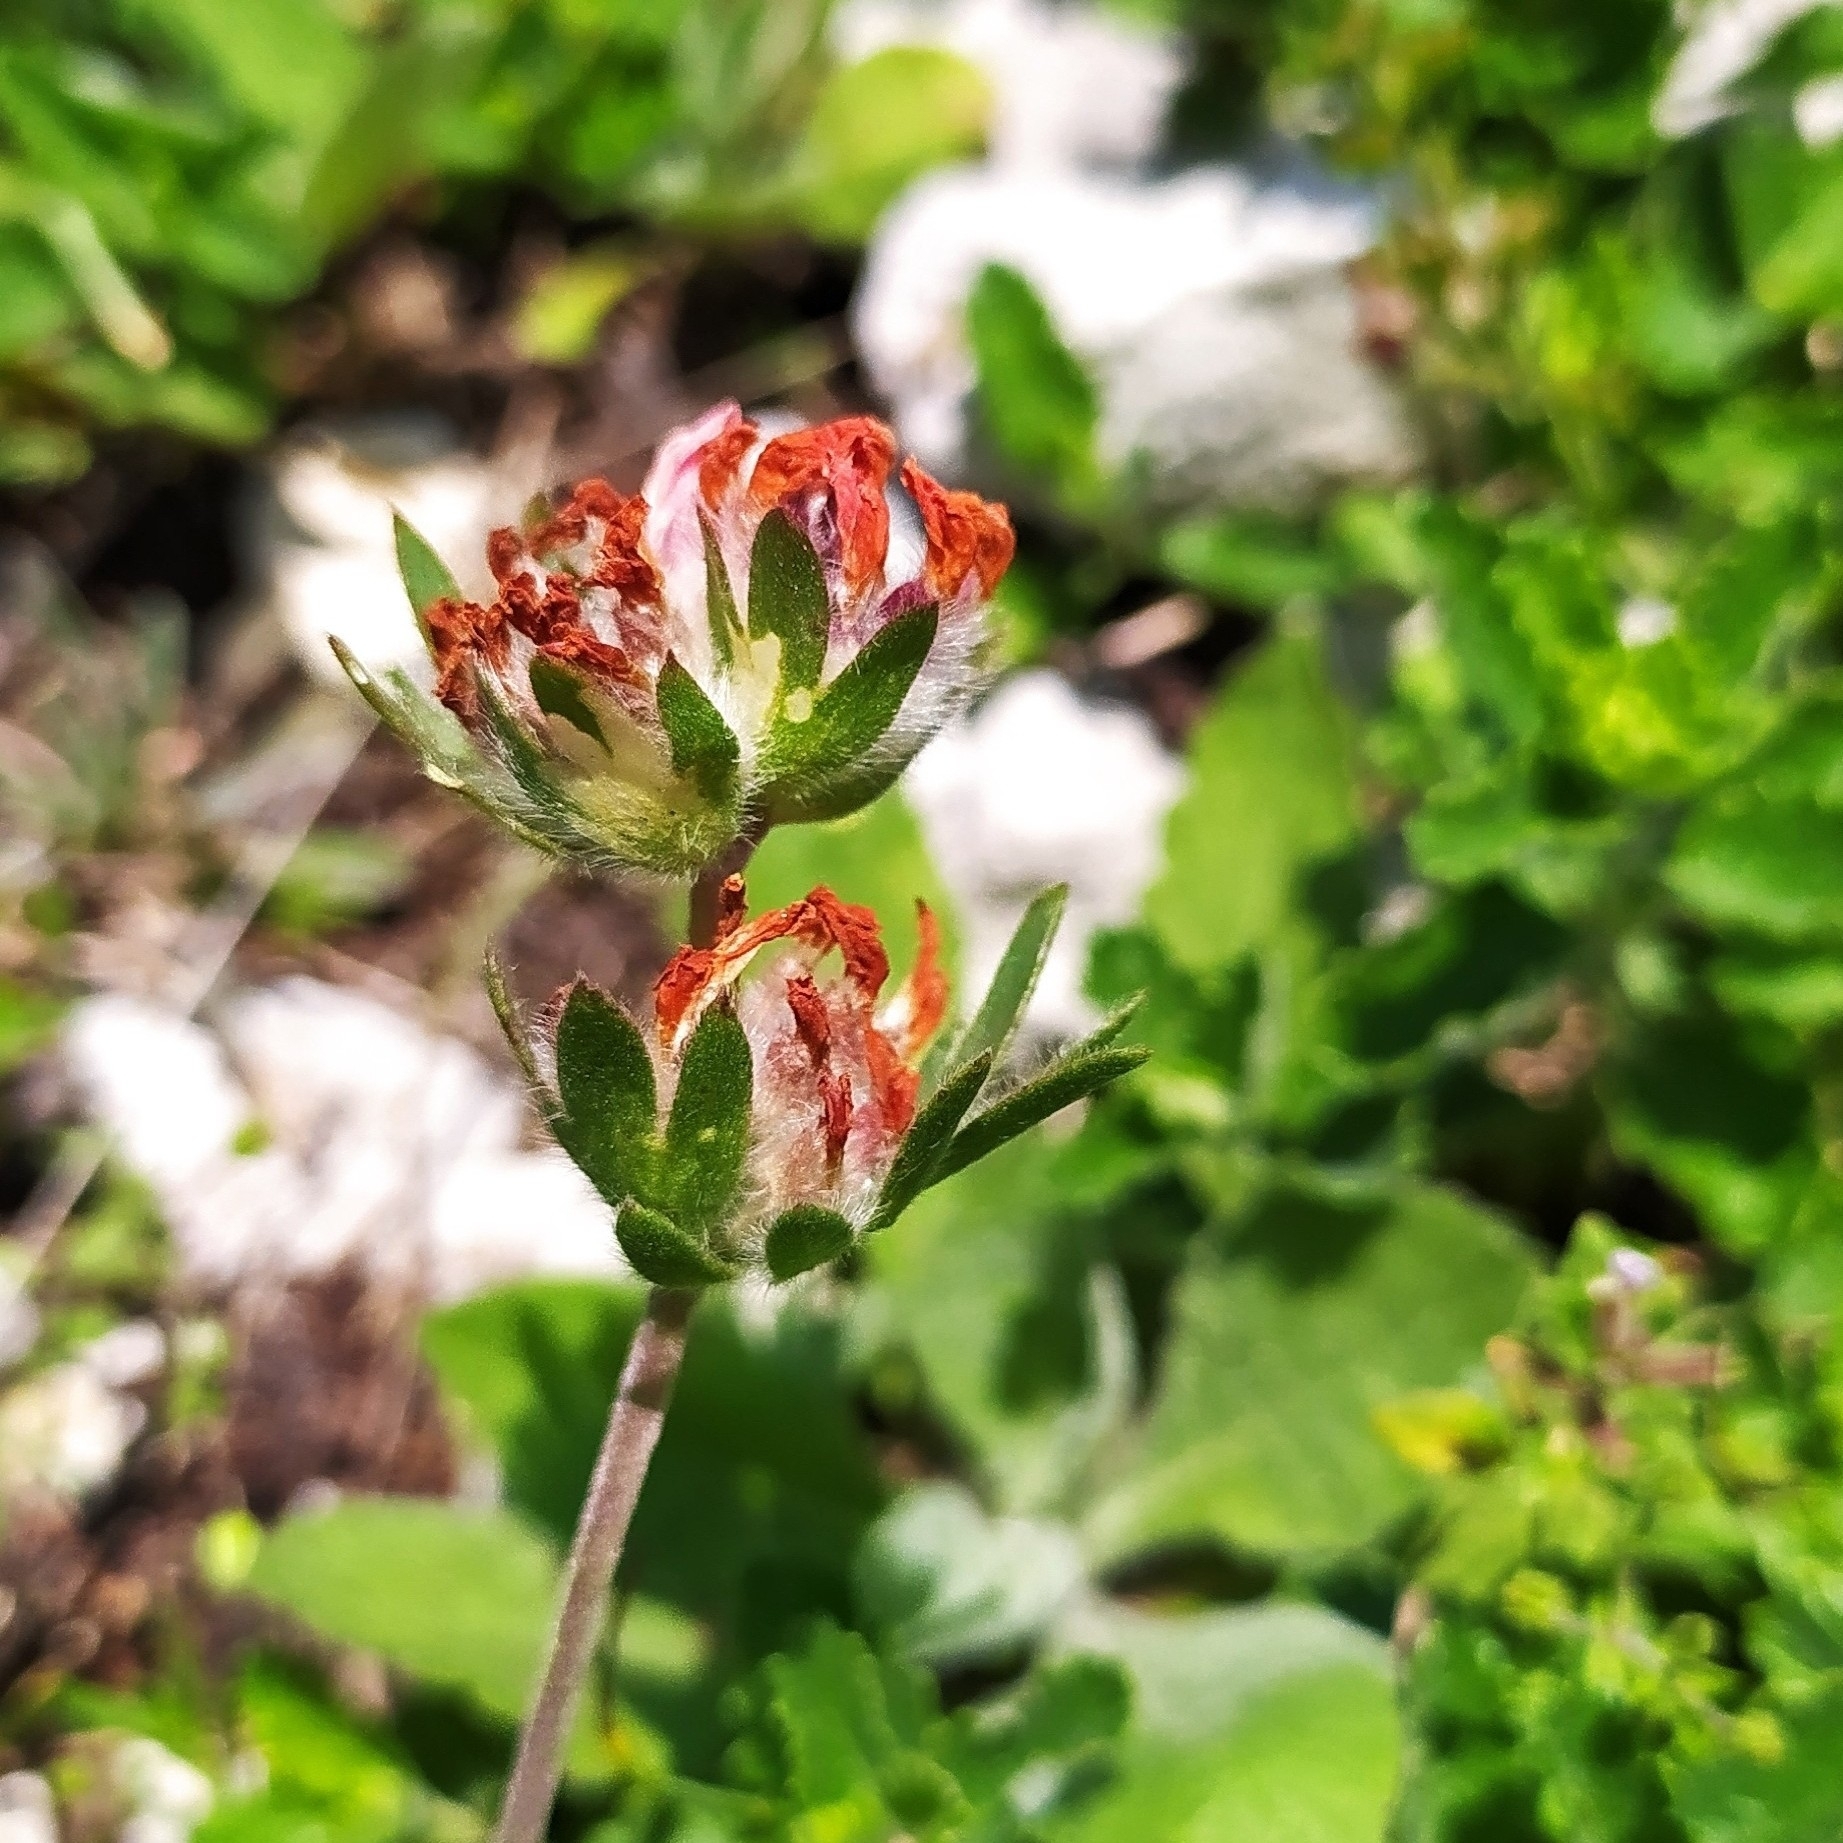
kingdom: Plantae
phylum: Tracheophyta
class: Magnoliopsida
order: Fabales
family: Fabaceae
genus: Anthyllis
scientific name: Anthyllis vulneraria
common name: Kidney vetch
